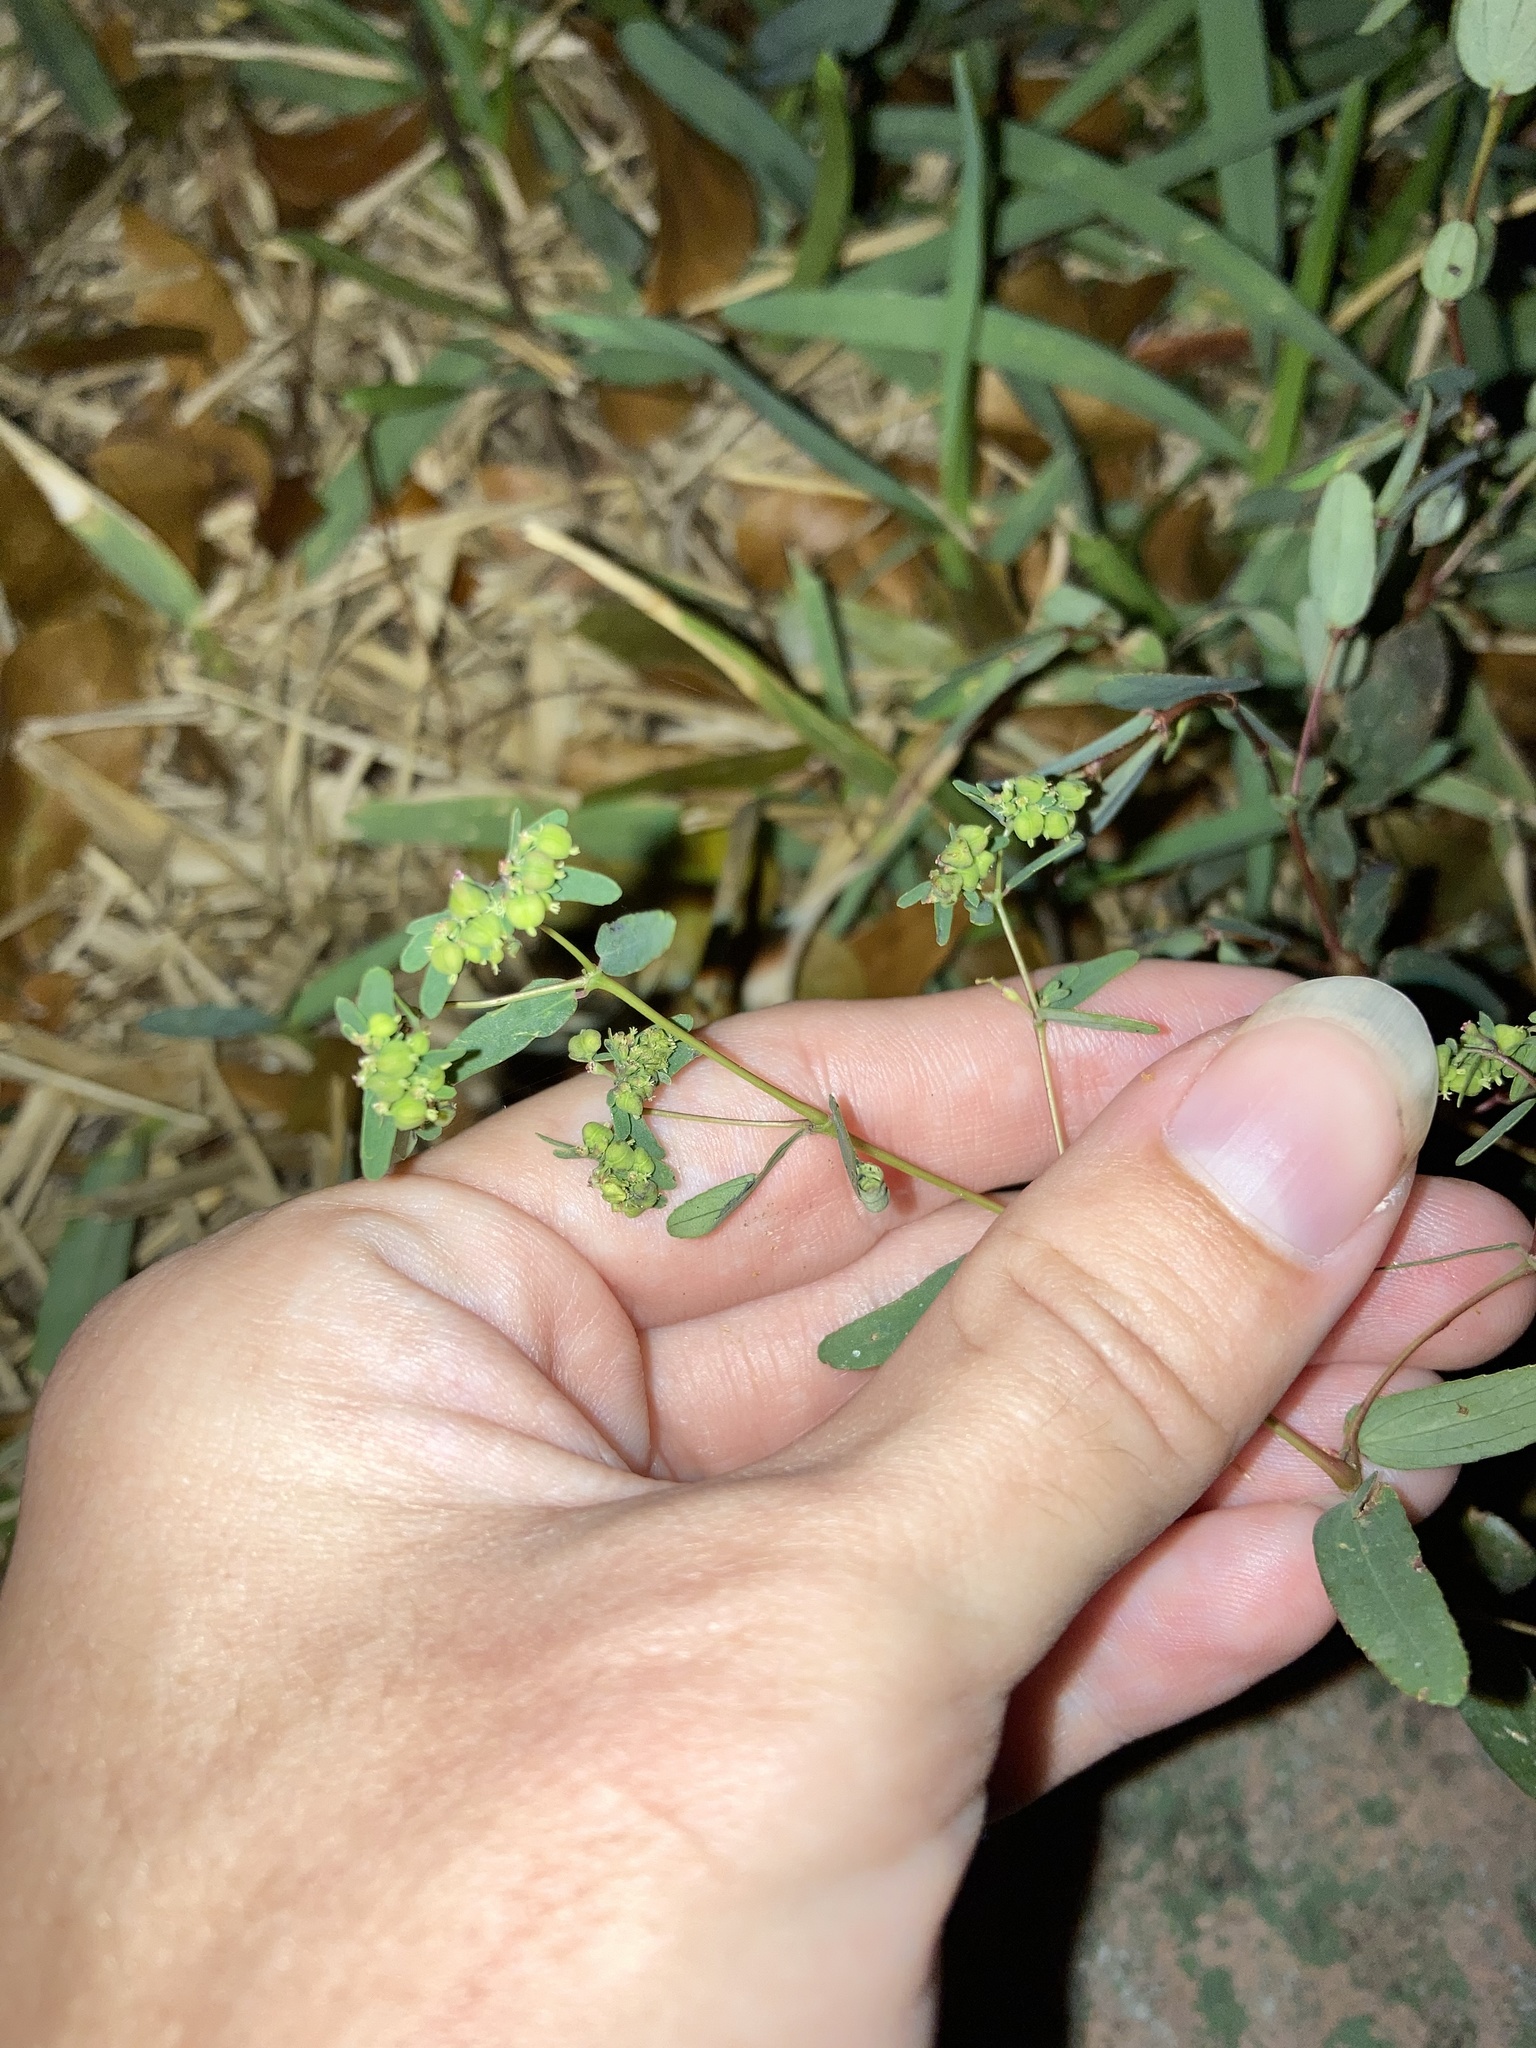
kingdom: Plantae
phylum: Tracheophyta
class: Magnoliopsida
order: Malpighiales
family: Euphorbiaceae
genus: Euphorbia
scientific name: Euphorbia hyssopifolia
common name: Hyssopleaf sandmat
